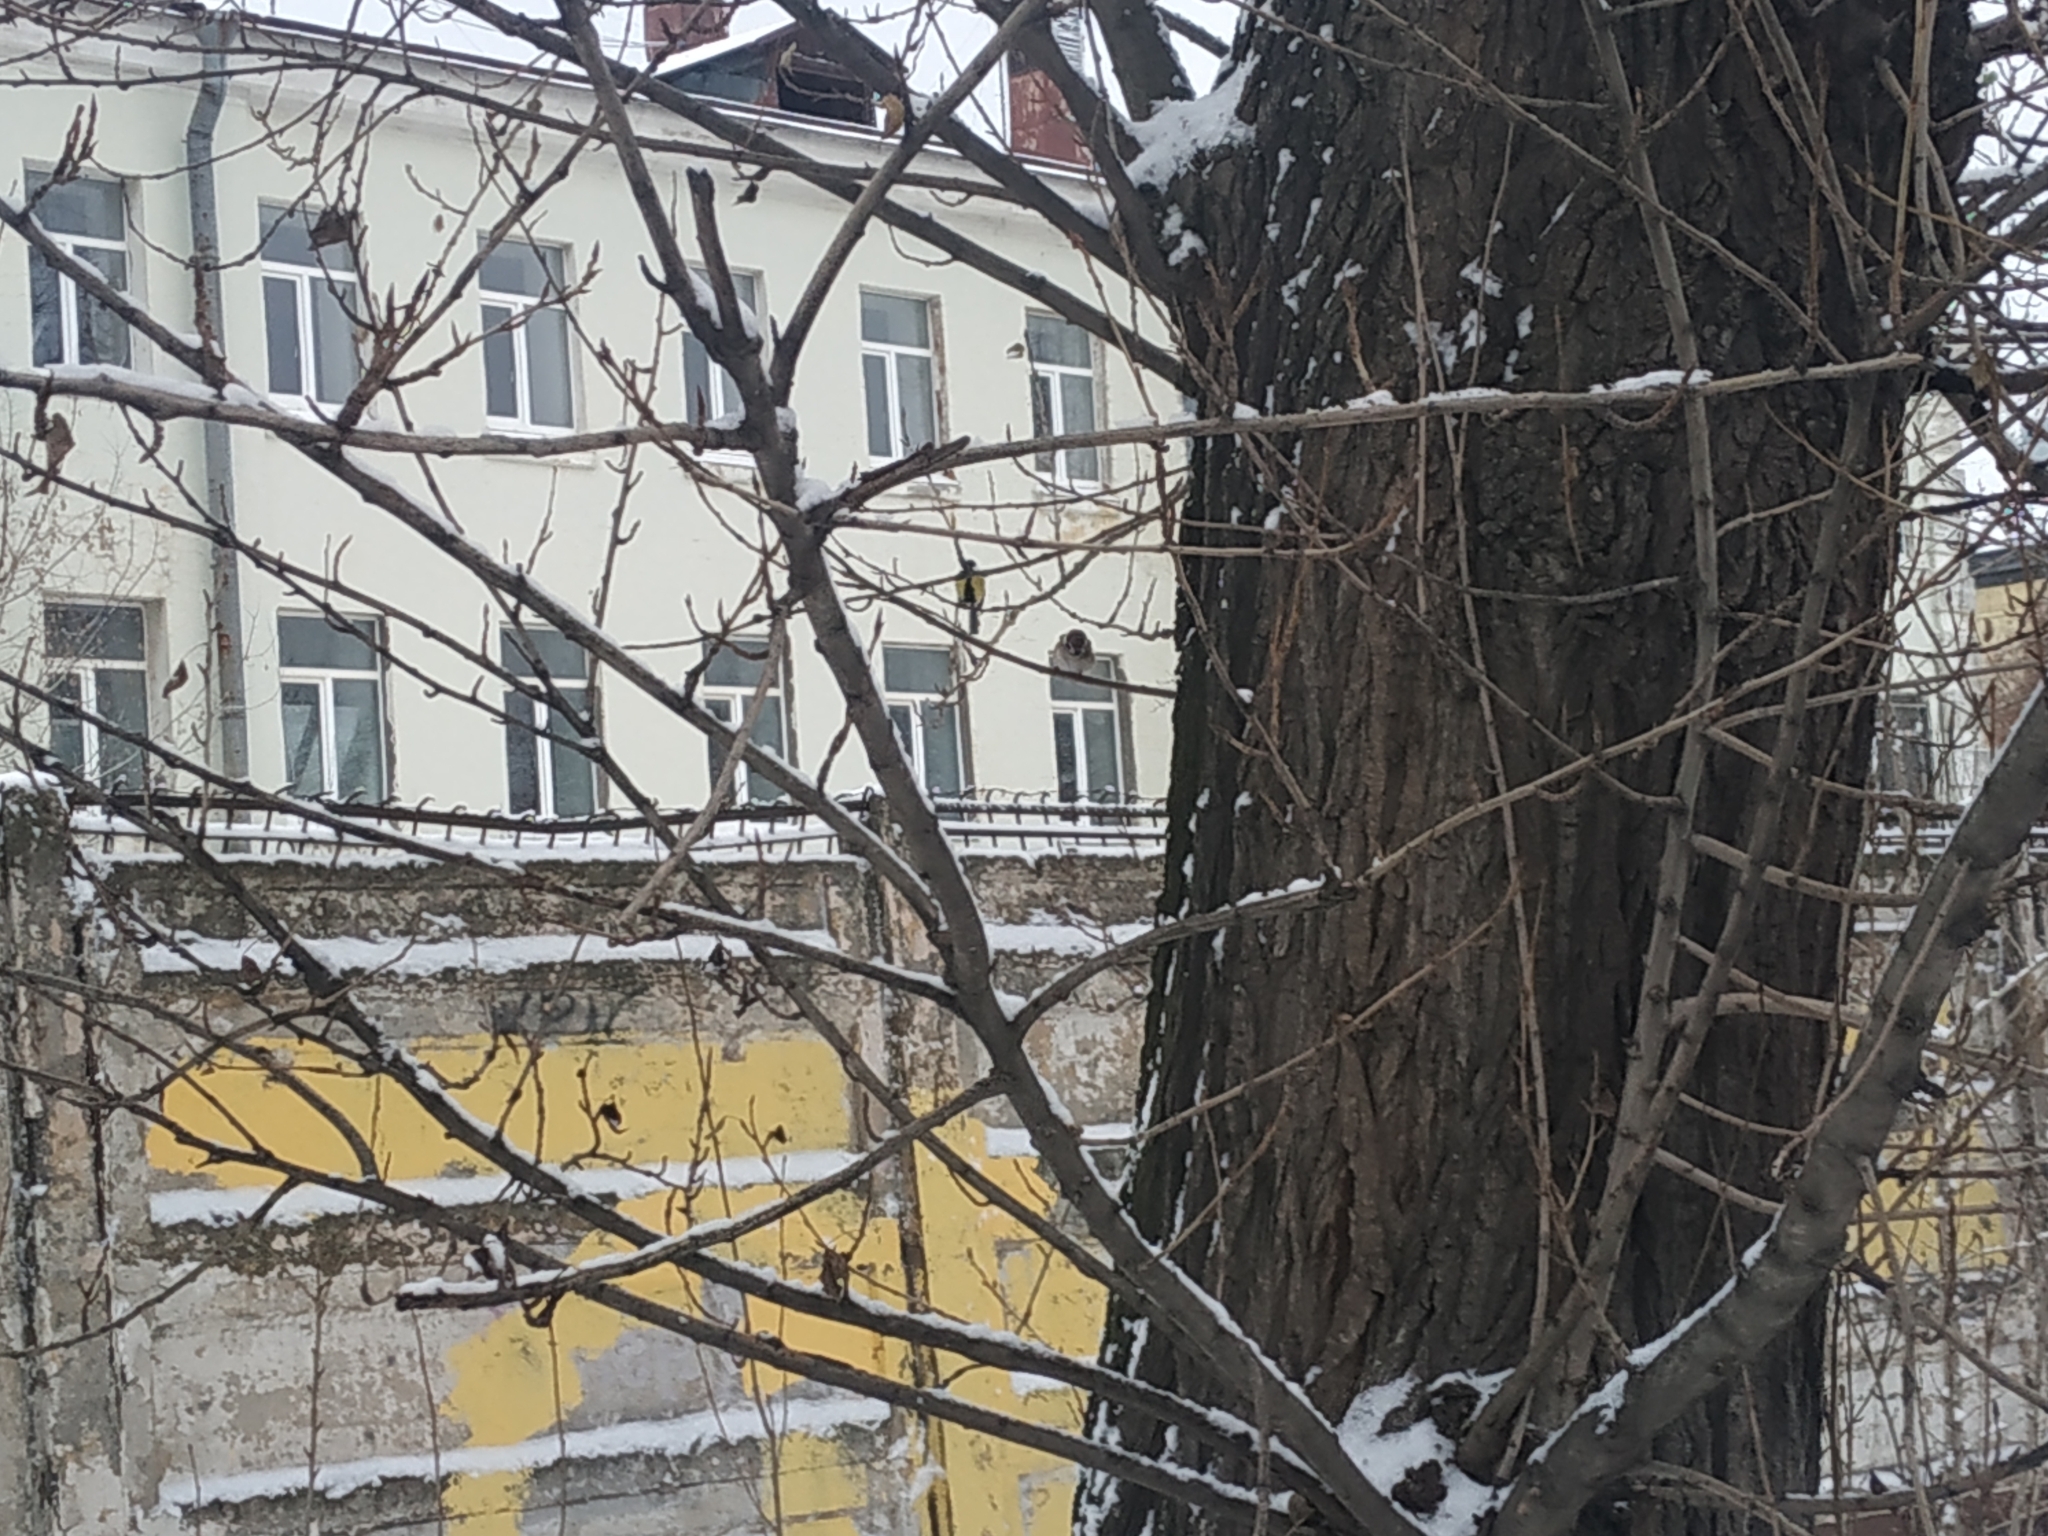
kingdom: Animalia
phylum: Chordata
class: Aves
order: Passeriformes
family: Paridae
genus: Parus
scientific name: Parus major
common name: Great tit
